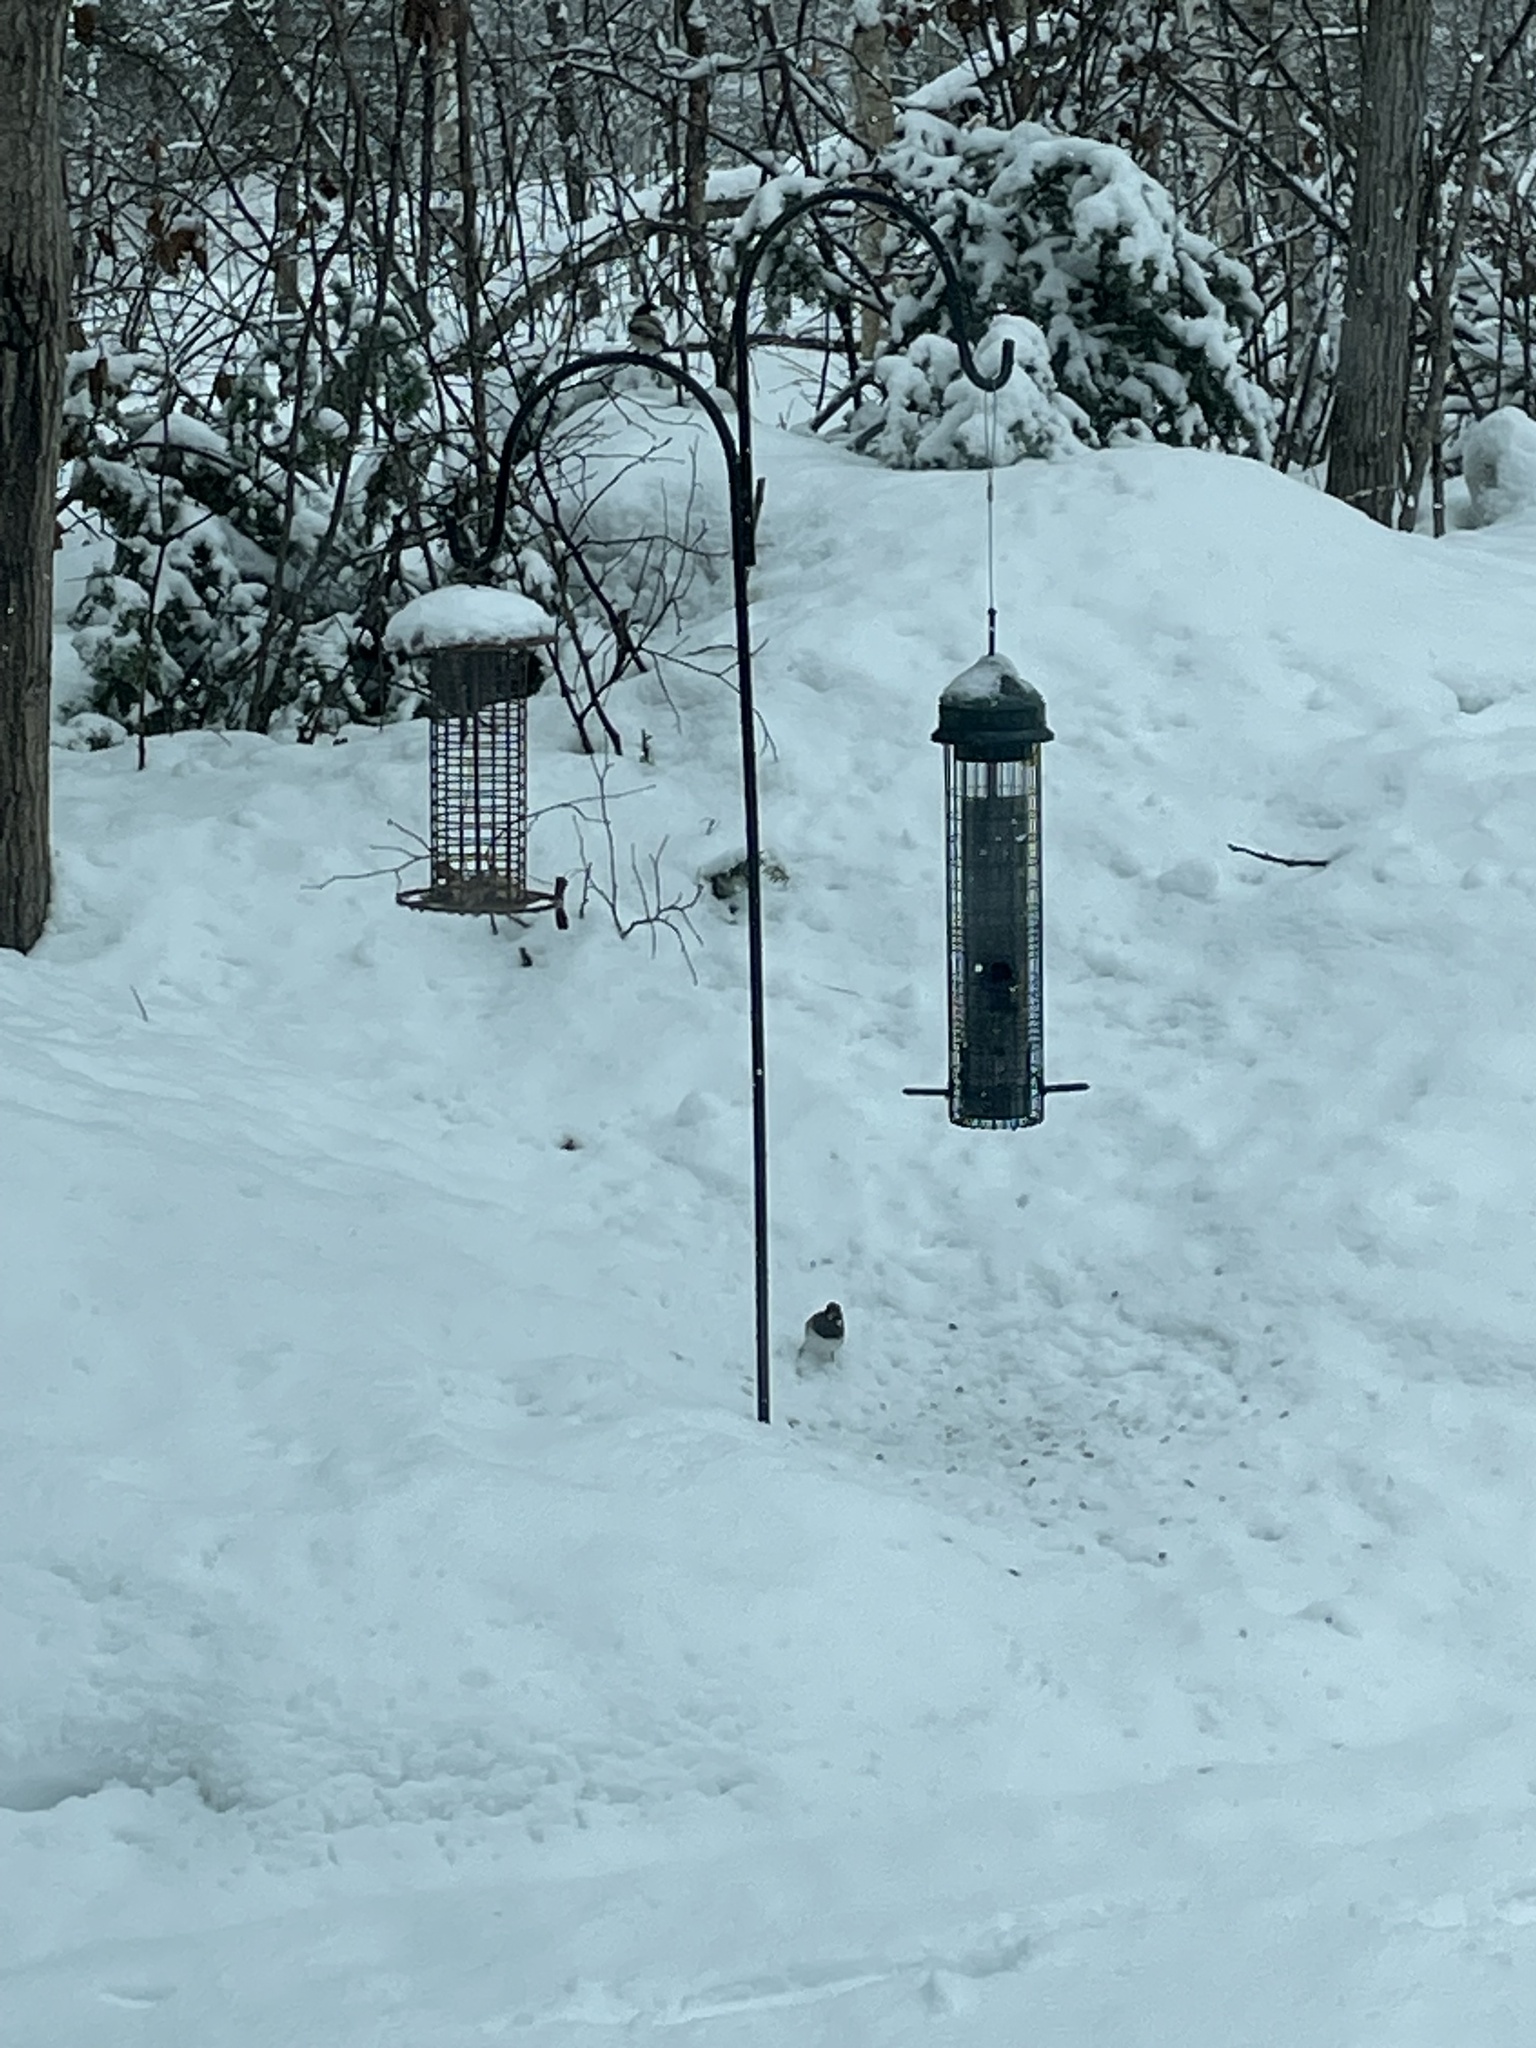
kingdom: Animalia
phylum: Chordata
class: Aves
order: Passeriformes
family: Passerellidae
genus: Junco
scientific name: Junco hyemalis
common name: Dark-eyed junco
